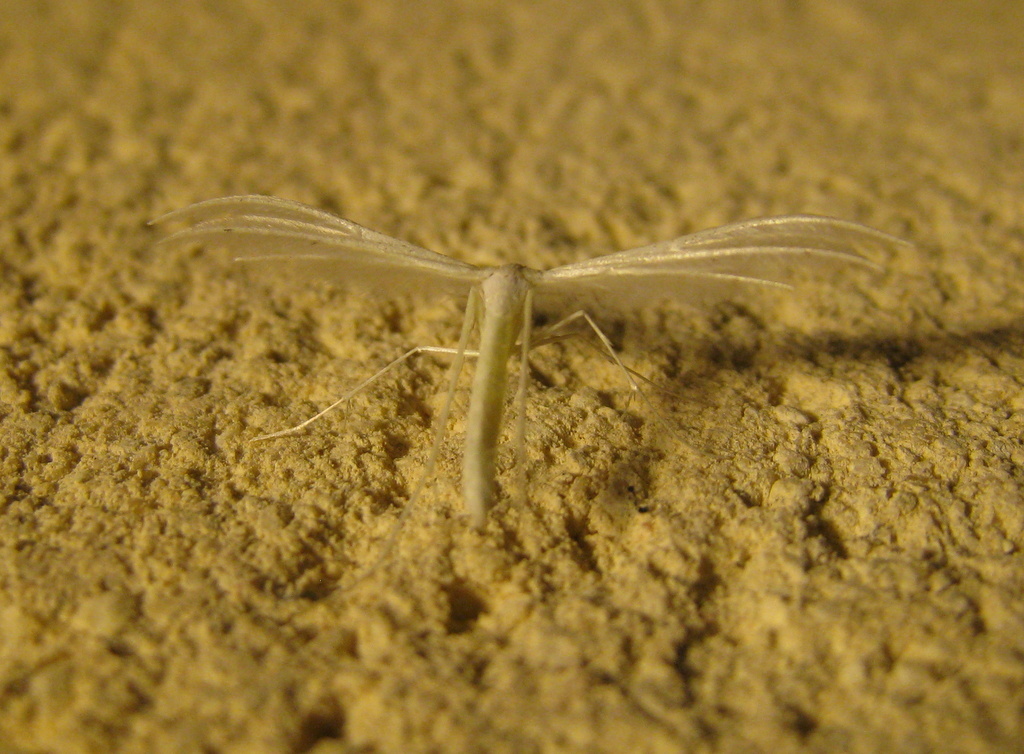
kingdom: Animalia
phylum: Arthropoda
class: Insecta
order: Lepidoptera
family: Pterophoridae
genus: Pterophorus
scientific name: Pterophorus pentadactyla
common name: White plume moth
